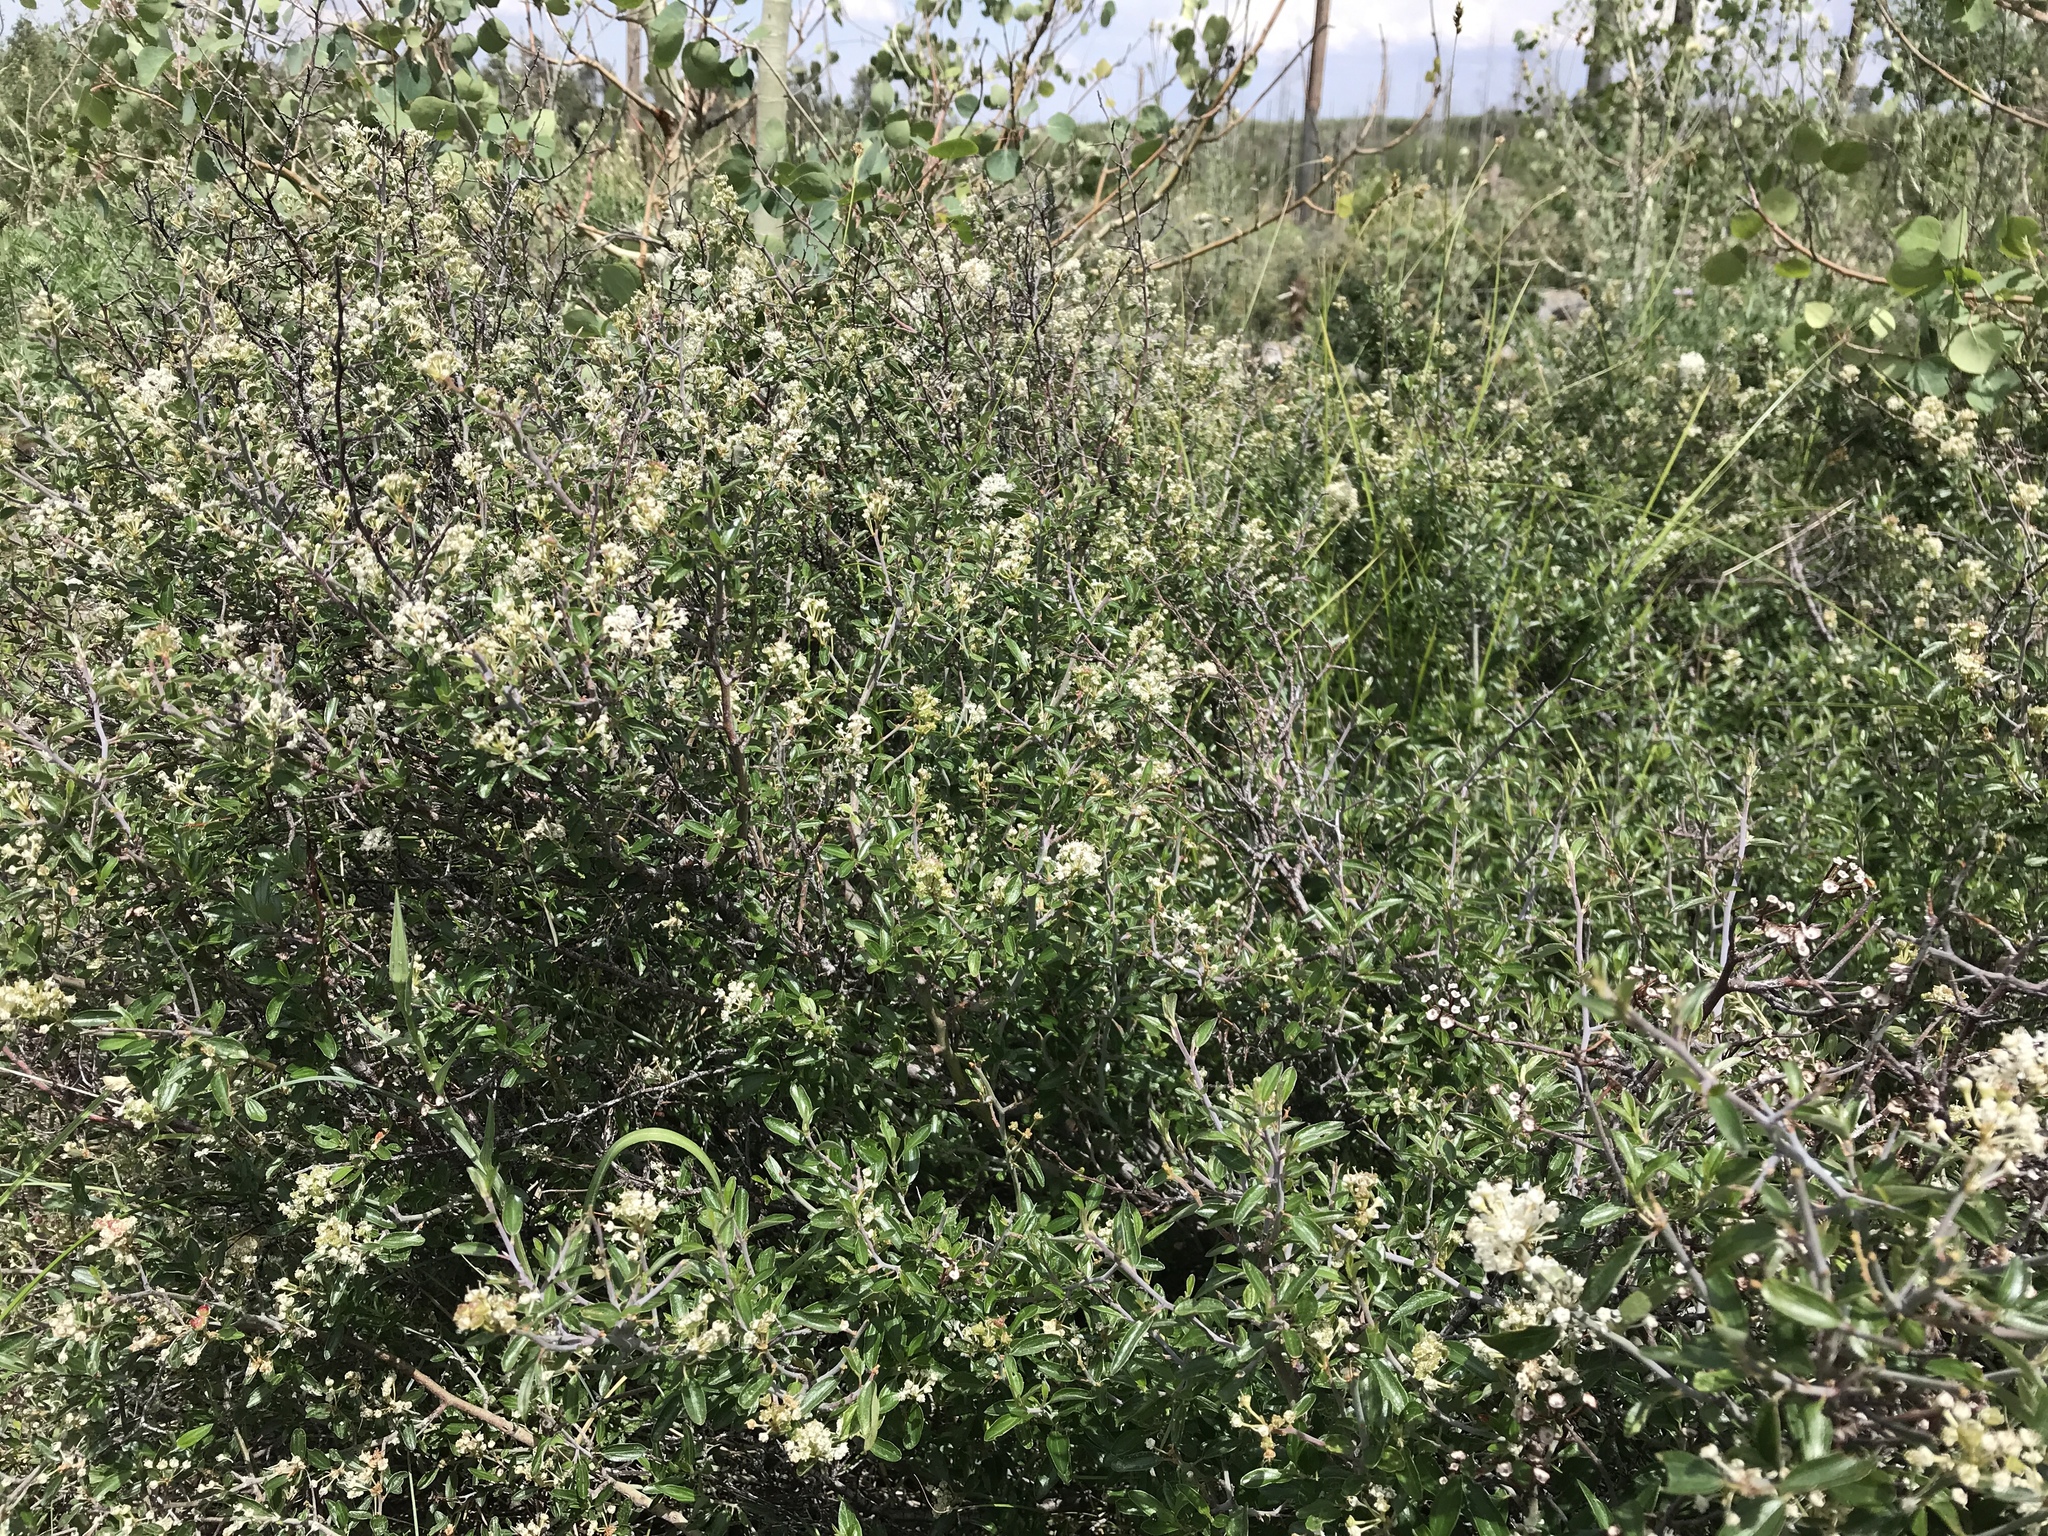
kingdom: Plantae
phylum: Tracheophyta
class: Magnoliopsida
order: Rosales
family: Rhamnaceae
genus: Ceanothus
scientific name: Ceanothus fendleri
